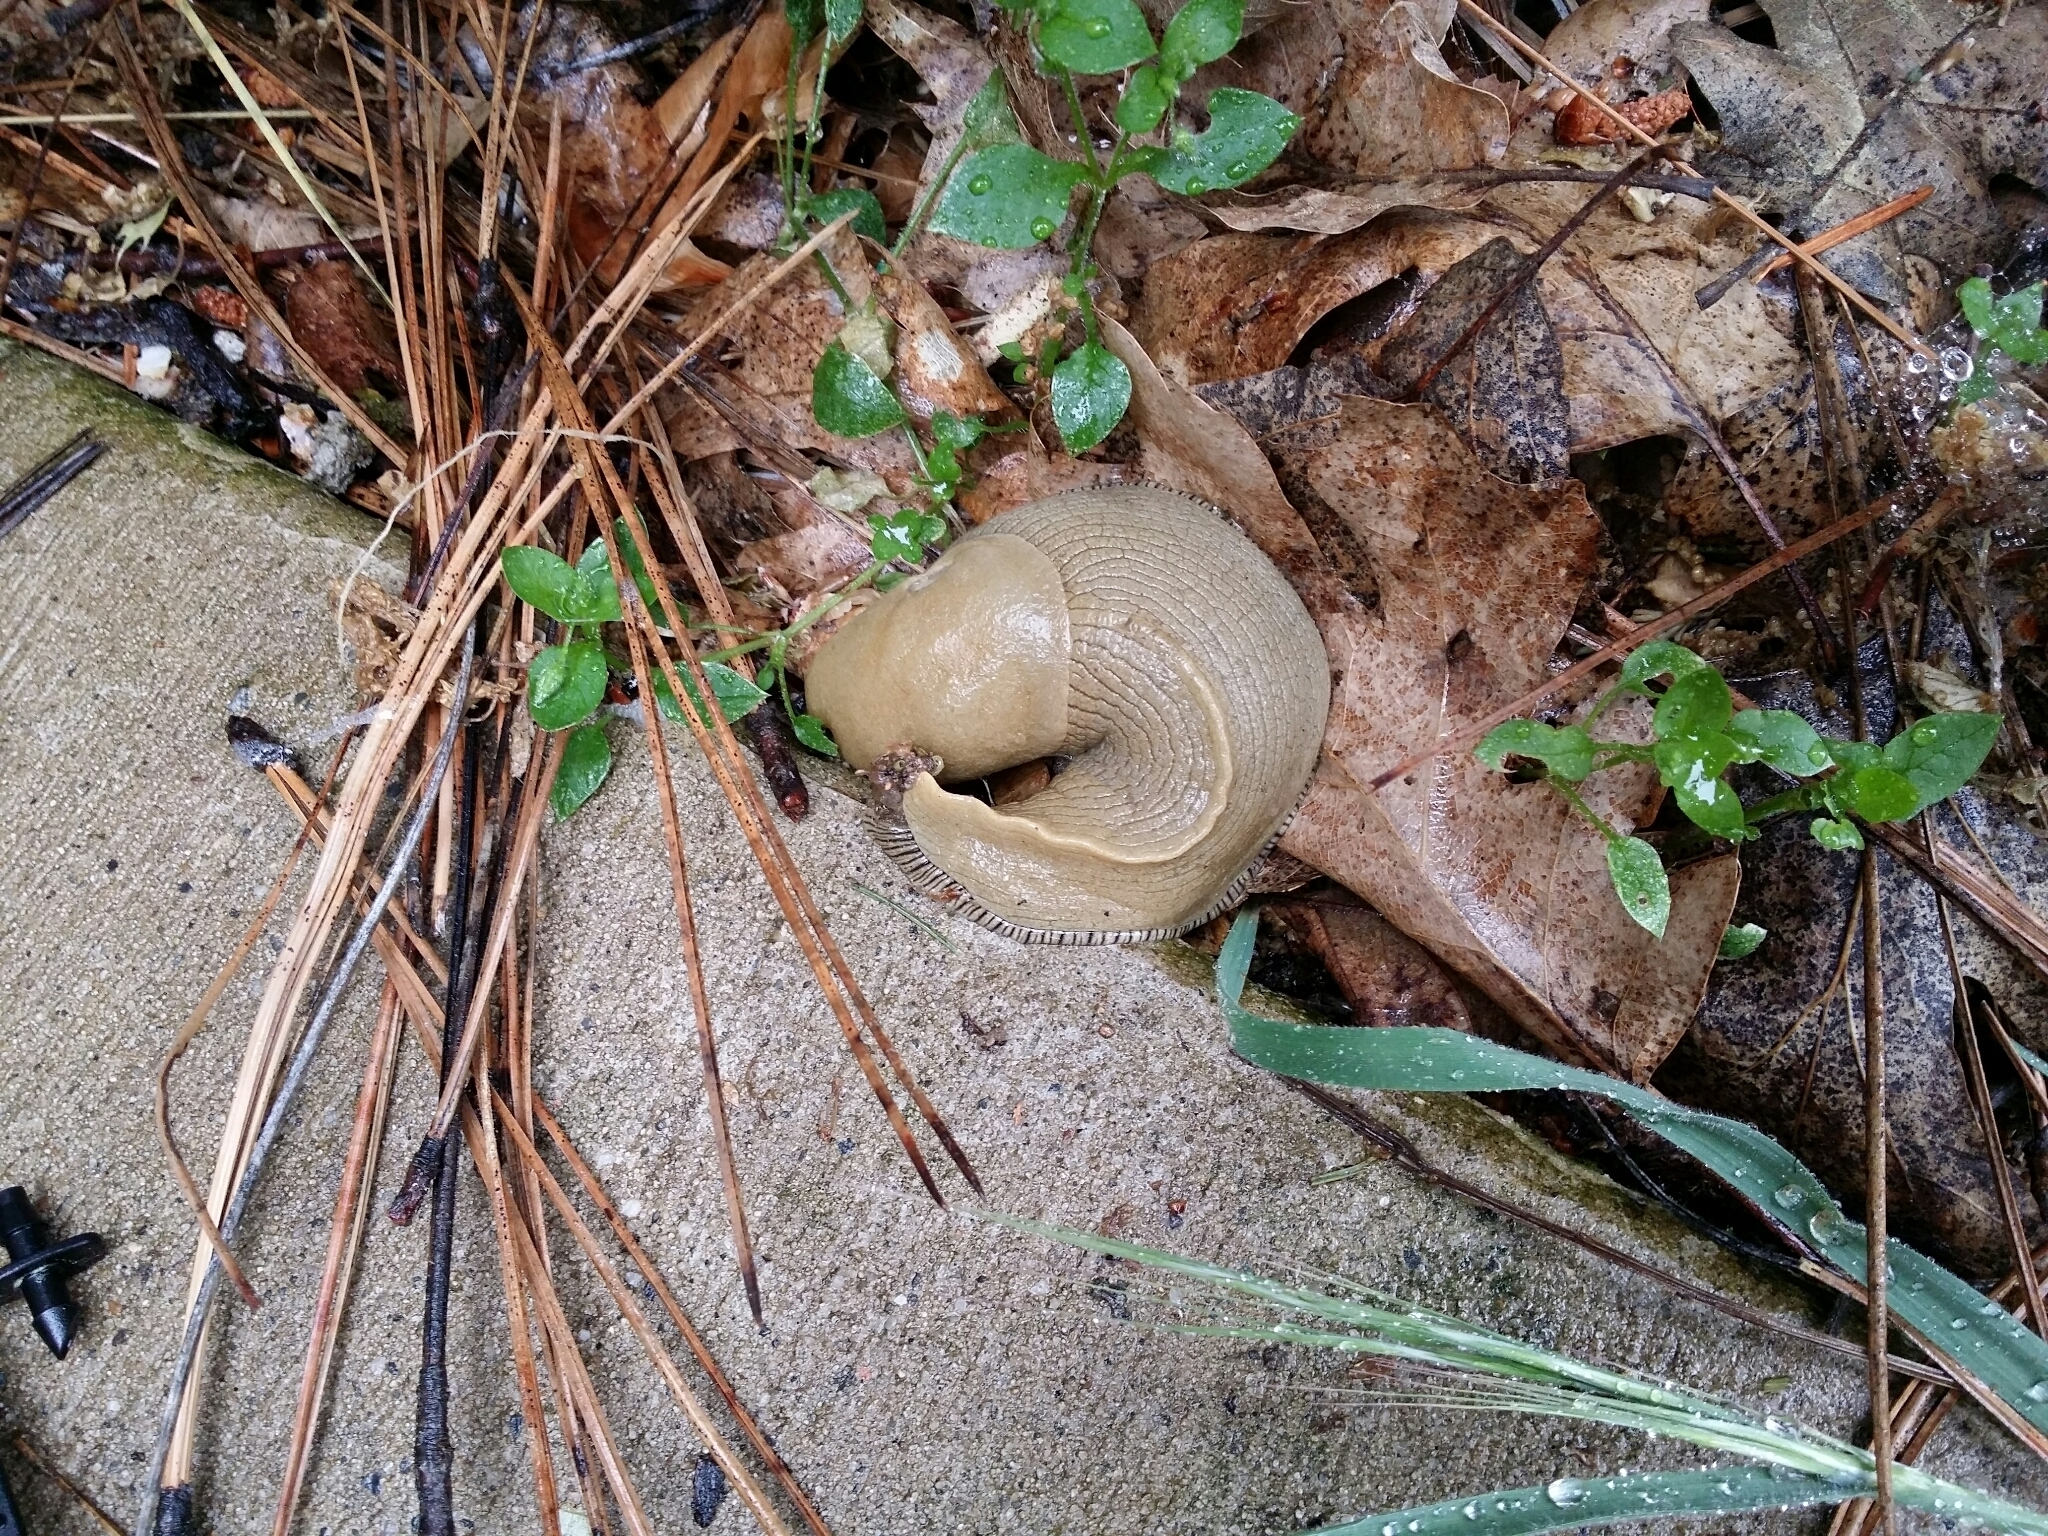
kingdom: Animalia
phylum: Mollusca
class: Gastropoda
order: Stylommatophora
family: Ariolimacidae
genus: Ariolimax
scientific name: Ariolimax buttoni
